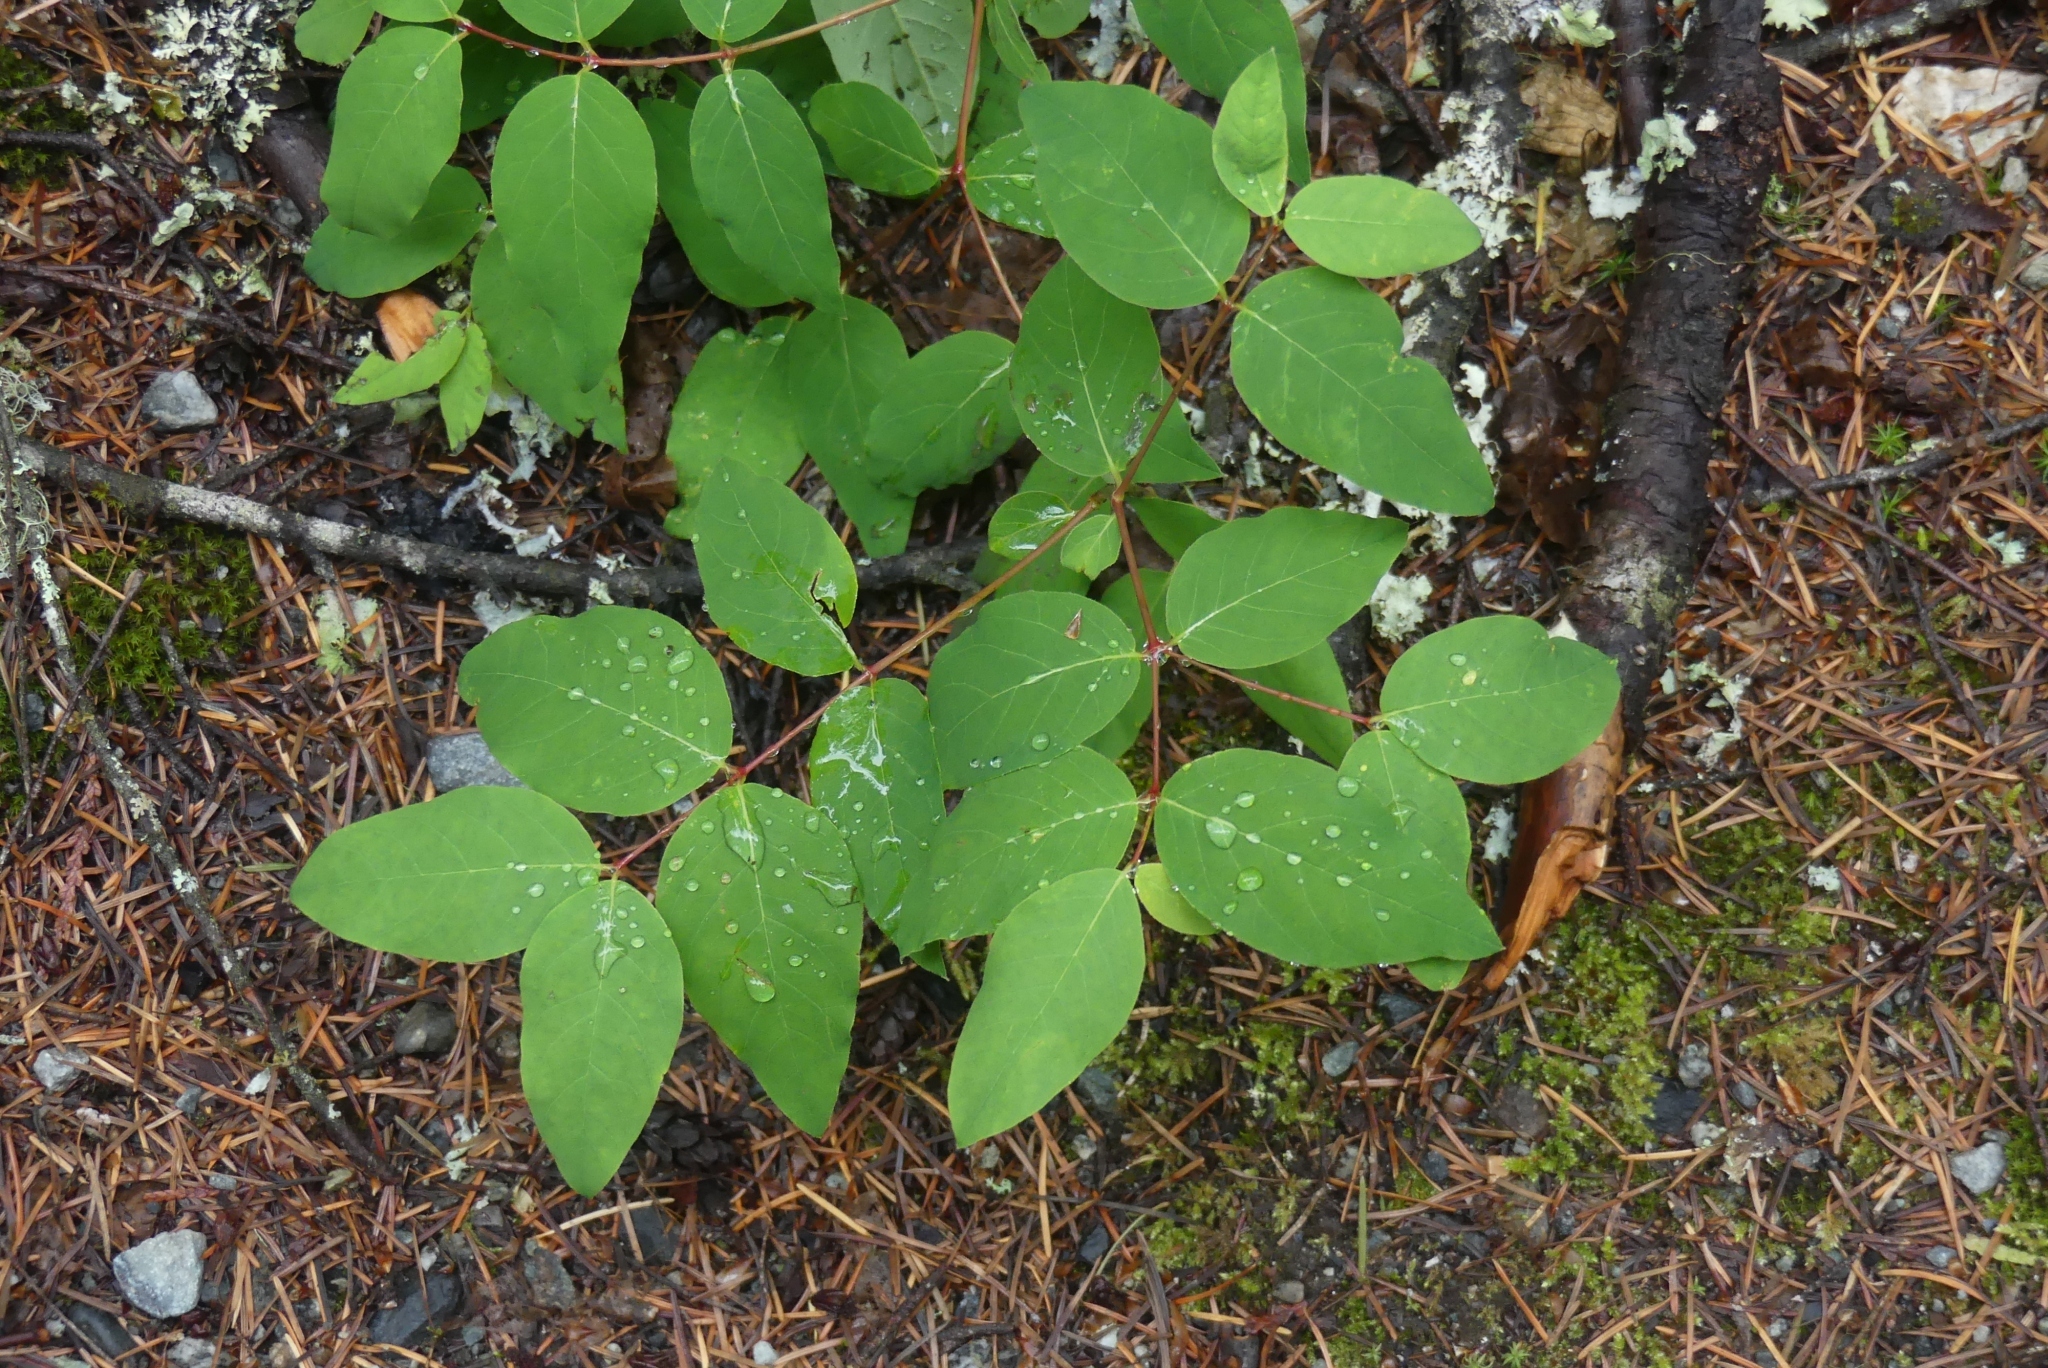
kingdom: Plantae
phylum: Tracheophyta
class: Magnoliopsida
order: Gentianales
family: Apocynaceae
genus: Apocynum
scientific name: Apocynum androsaemifolium
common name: Spreading dogbane
